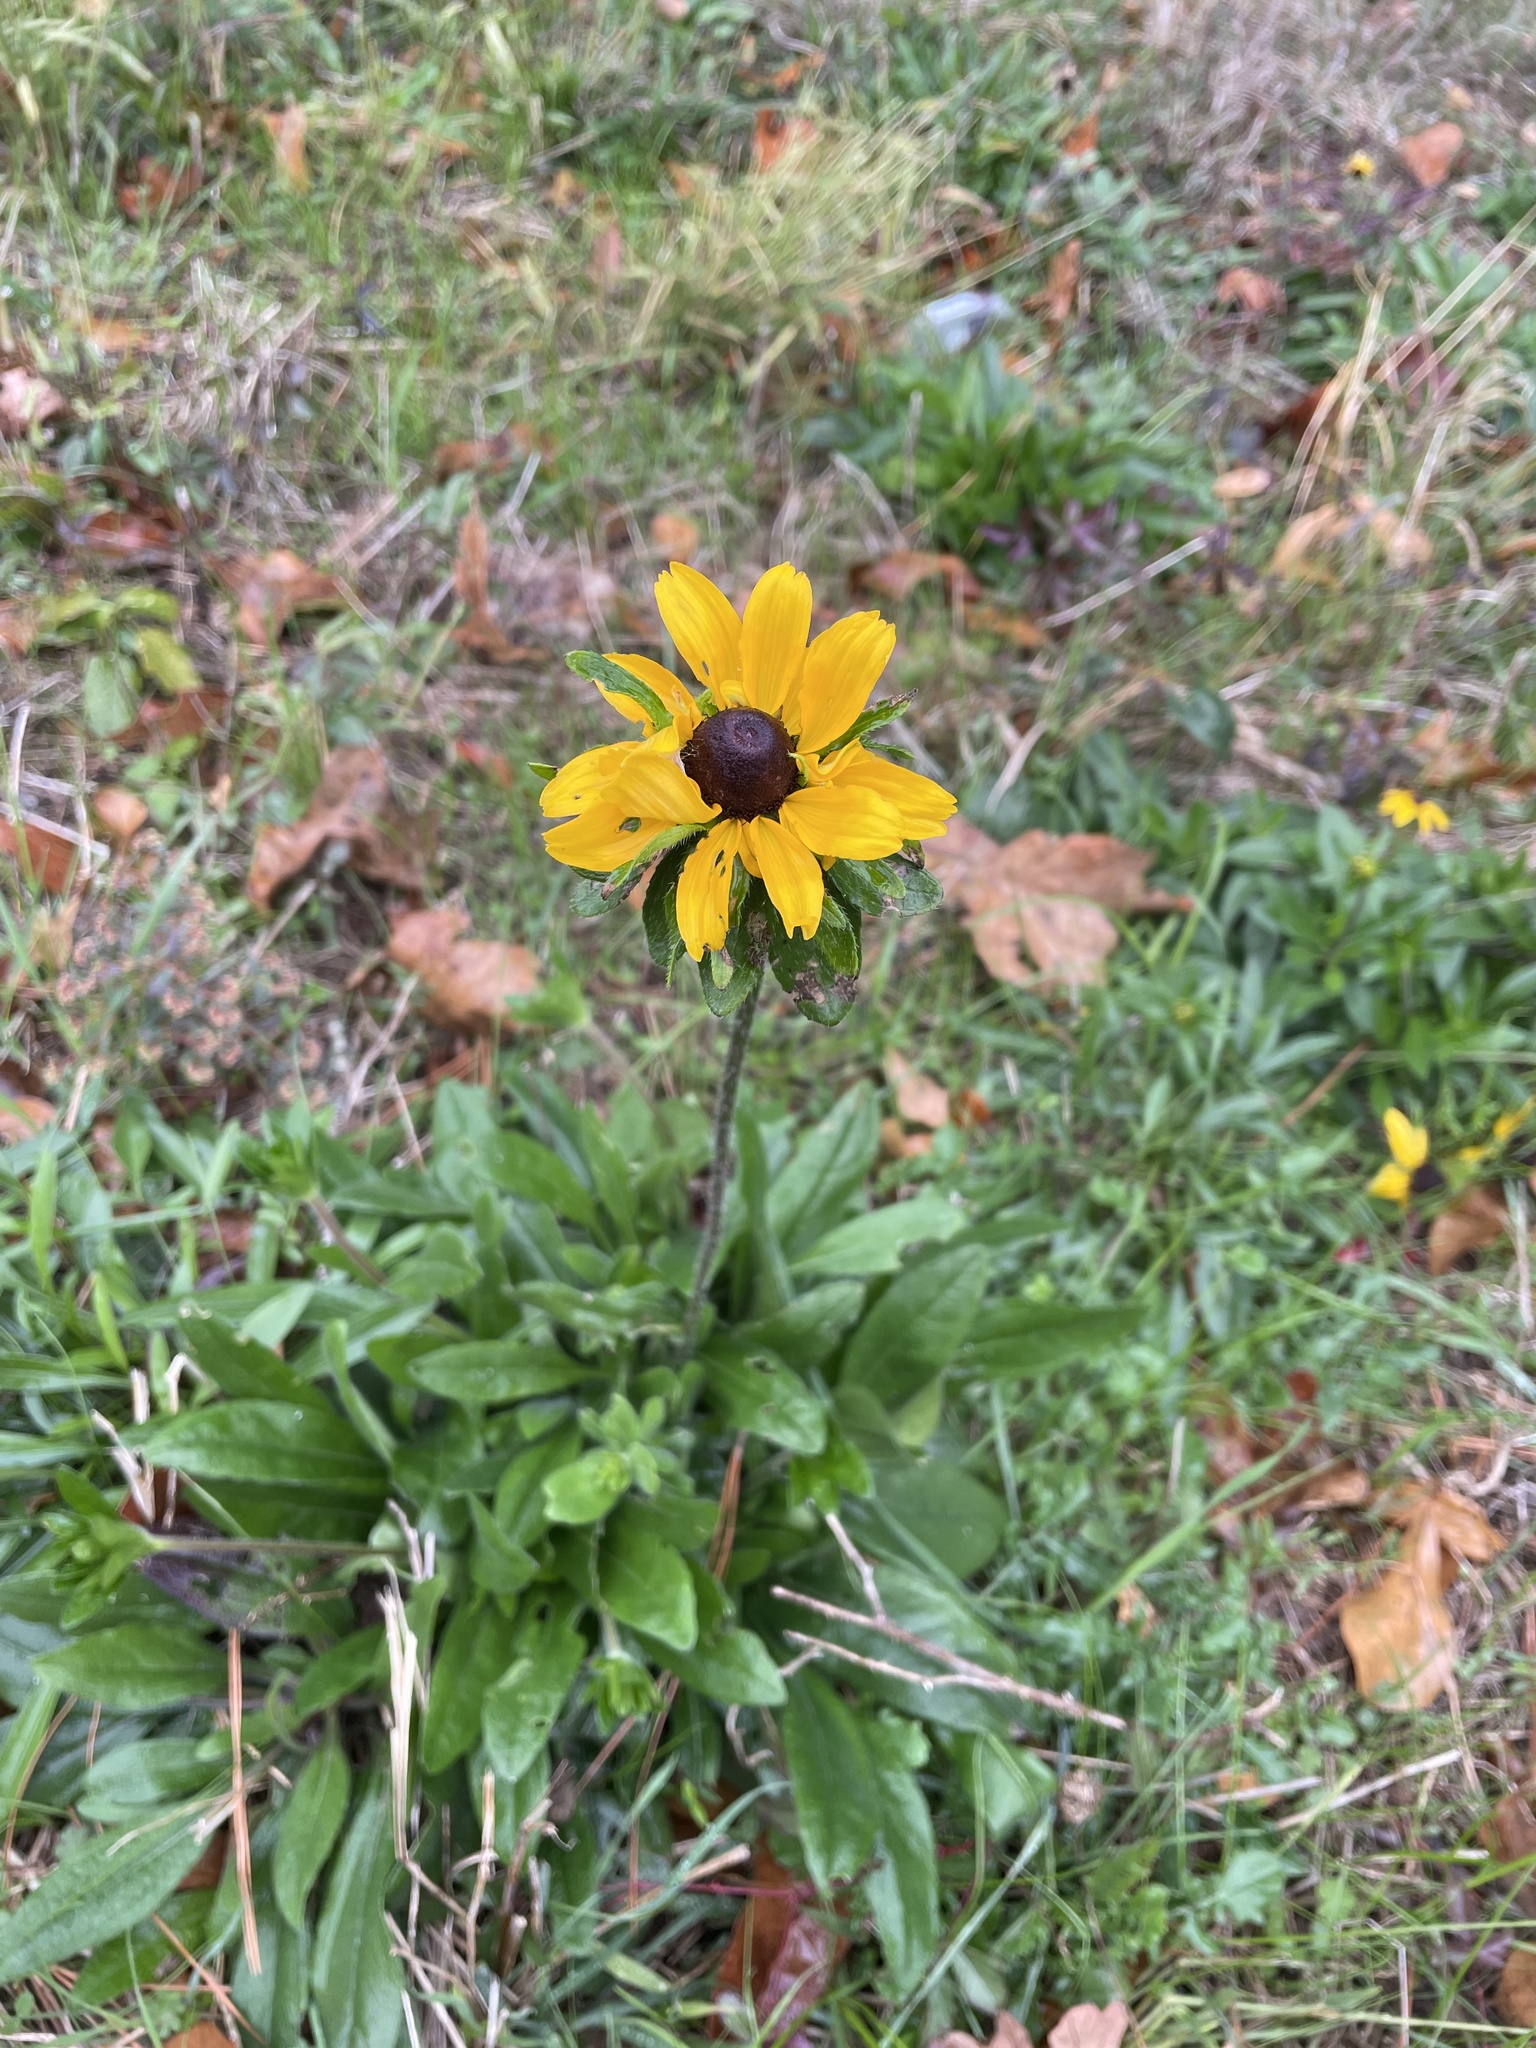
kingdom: Plantae
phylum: Tracheophyta
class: Magnoliopsida
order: Asterales
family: Asteraceae
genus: Rudbeckia
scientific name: Rudbeckia hirta
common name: Black-eyed-susan
